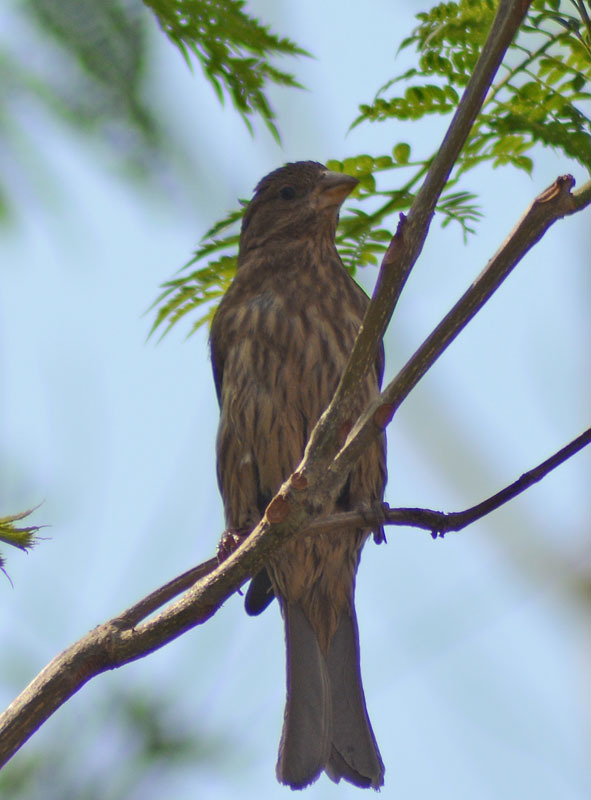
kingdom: Animalia
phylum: Chordata
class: Aves
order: Passeriformes
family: Fringillidae
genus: Haemorhous
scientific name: Haemorhous mexicanus
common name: House finch
